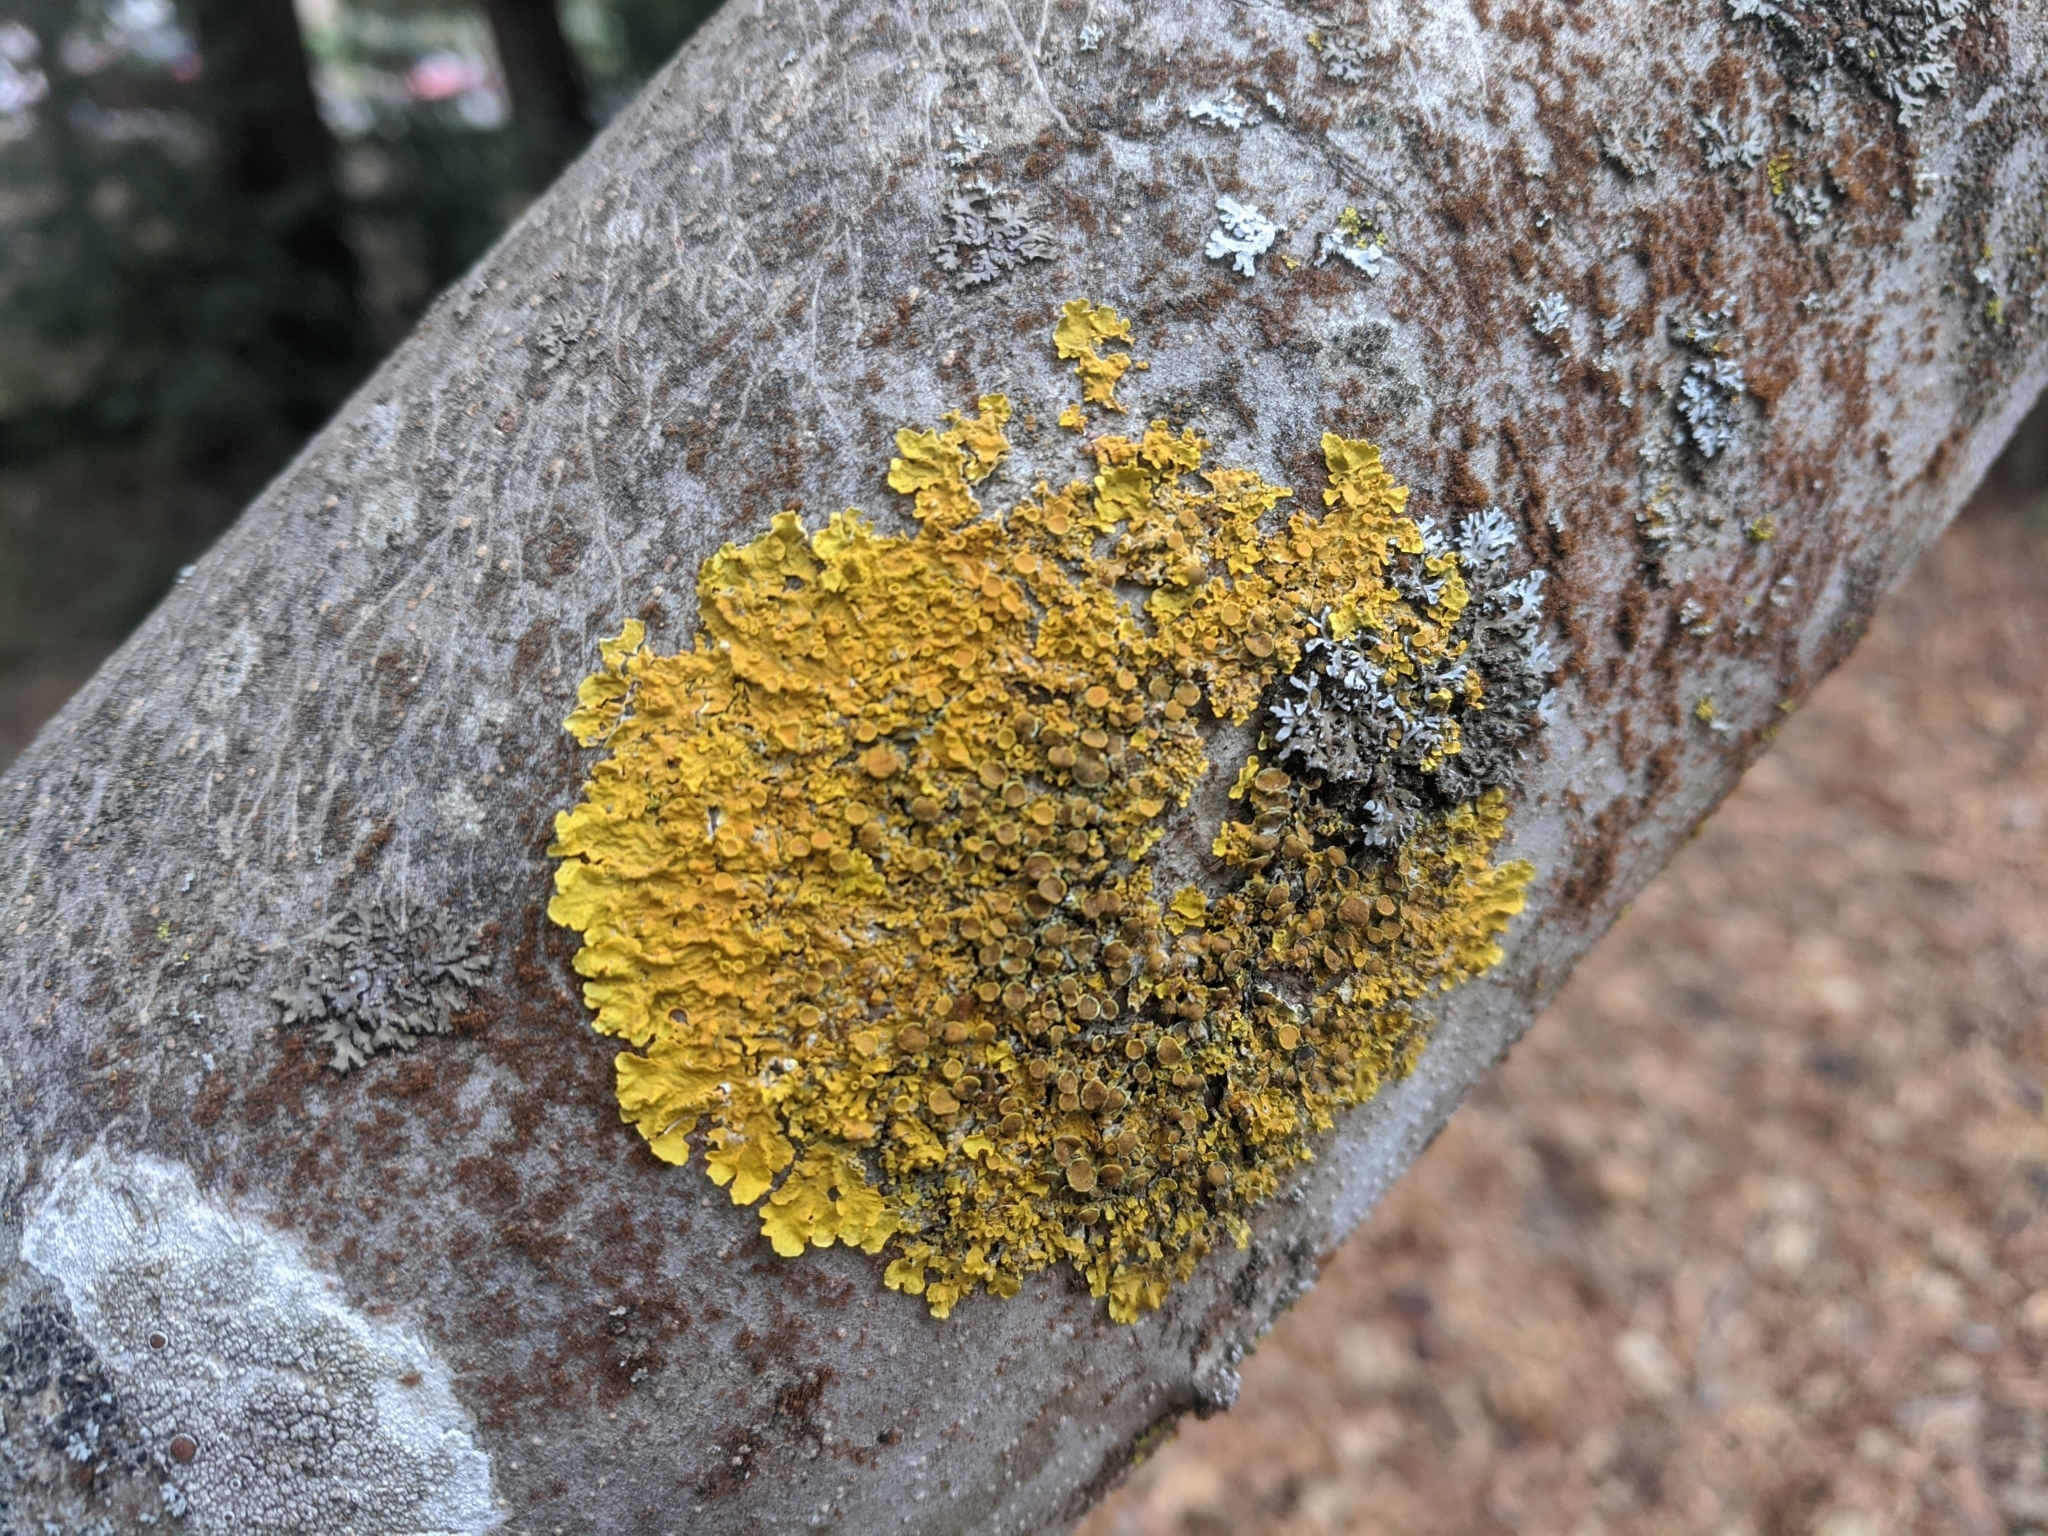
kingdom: Fungi
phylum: Ascomycota
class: Lecanoromycetes
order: Teloschistales
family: Teloschistaceae
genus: Xanthoria
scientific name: Xanthoria parietina
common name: Common orange lichen
